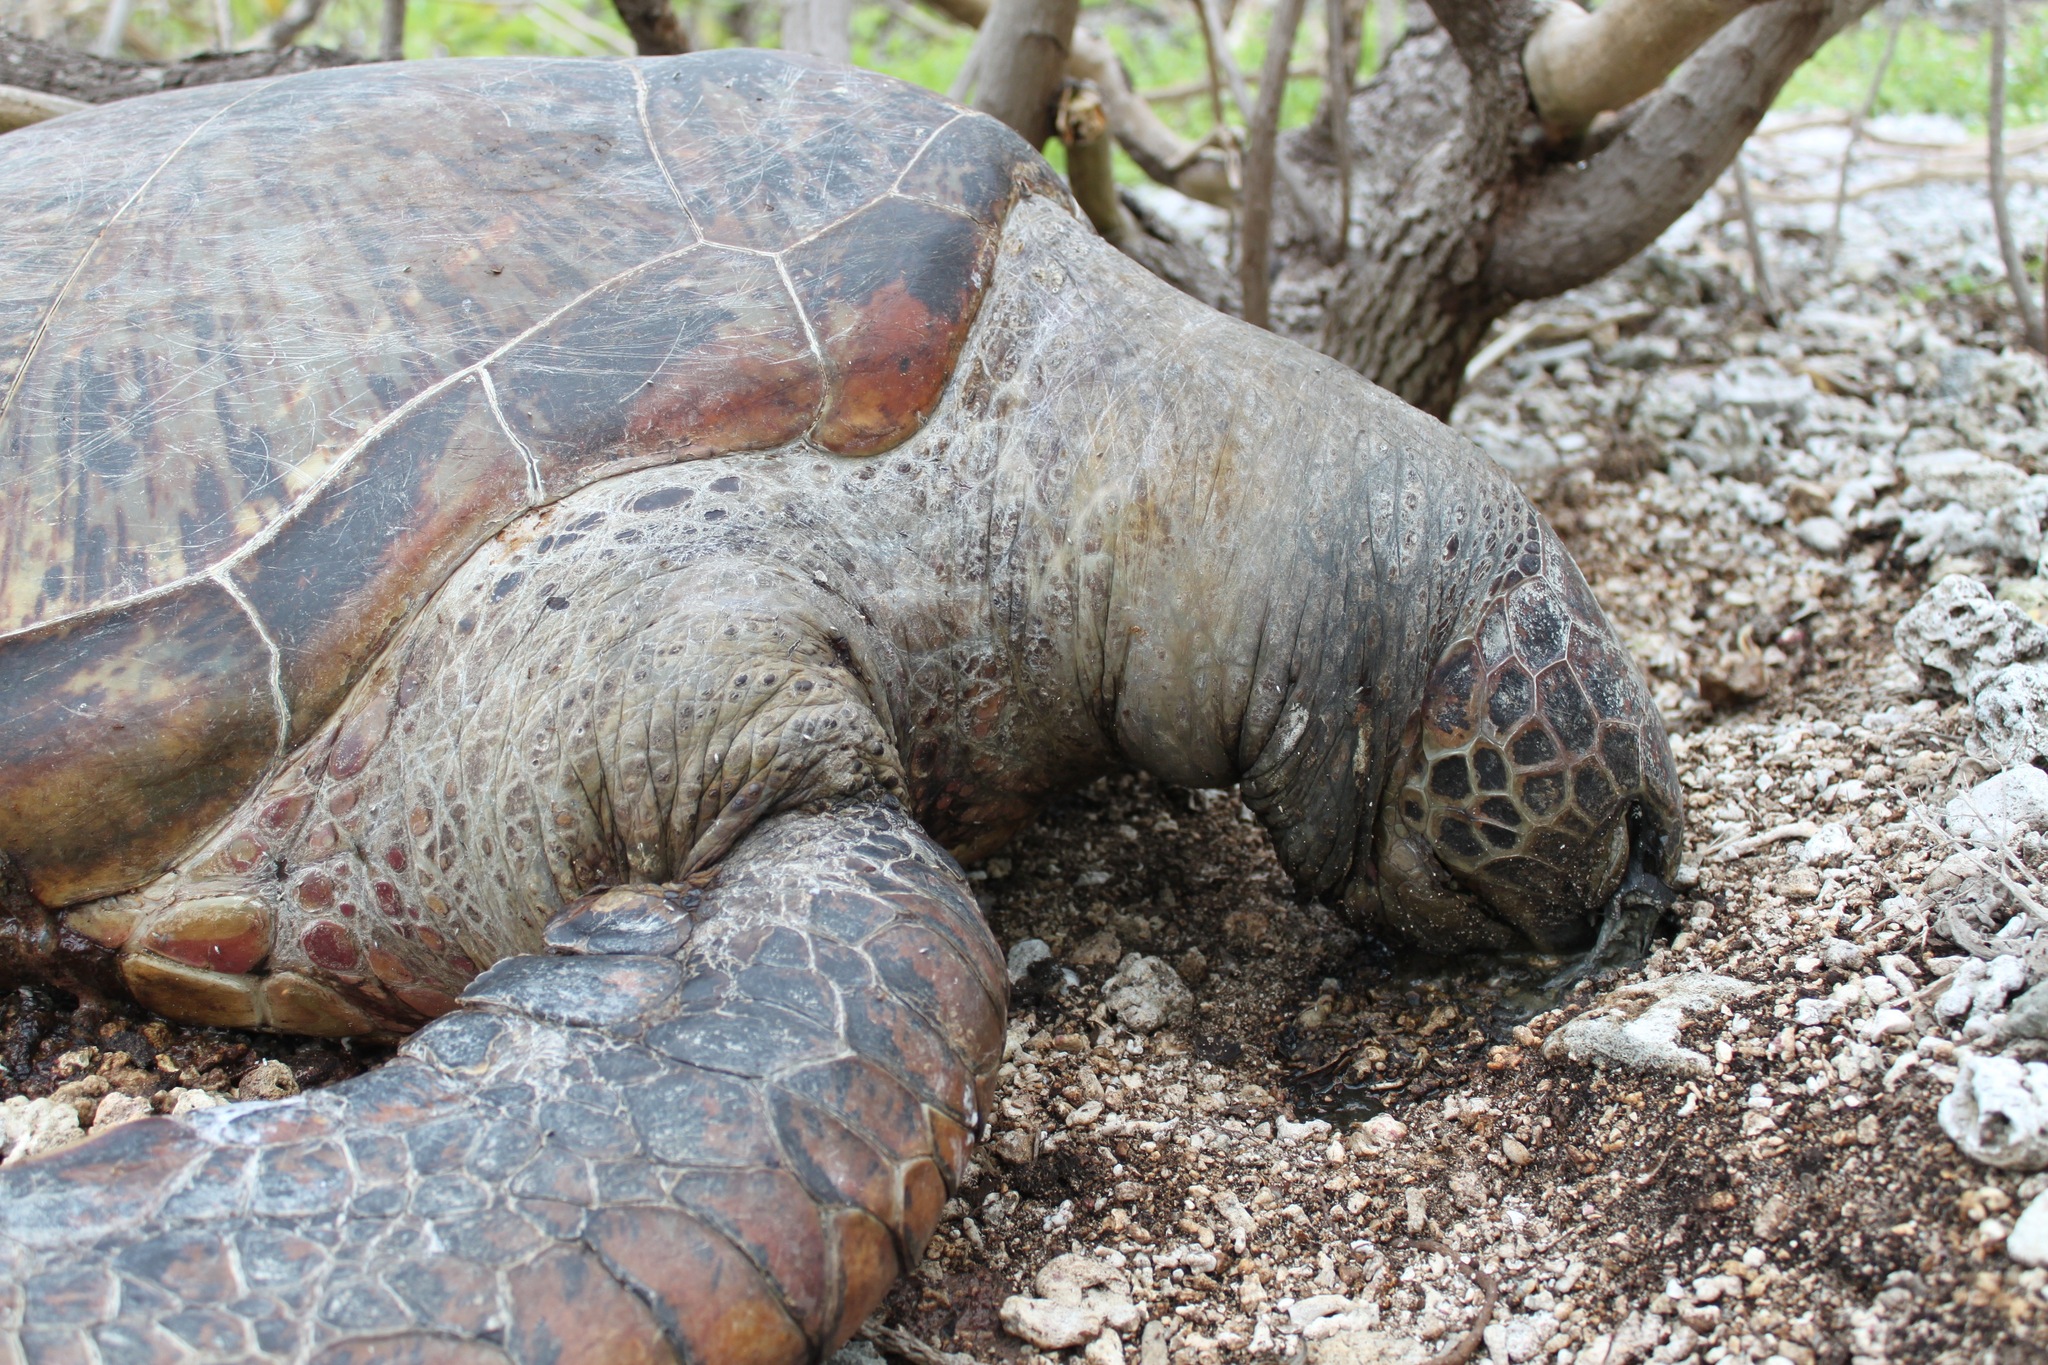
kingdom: Animalia
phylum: Chordata
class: Testudines
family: Cheloniidae
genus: Chelonia
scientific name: Chelonia mydas
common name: Green turtle
